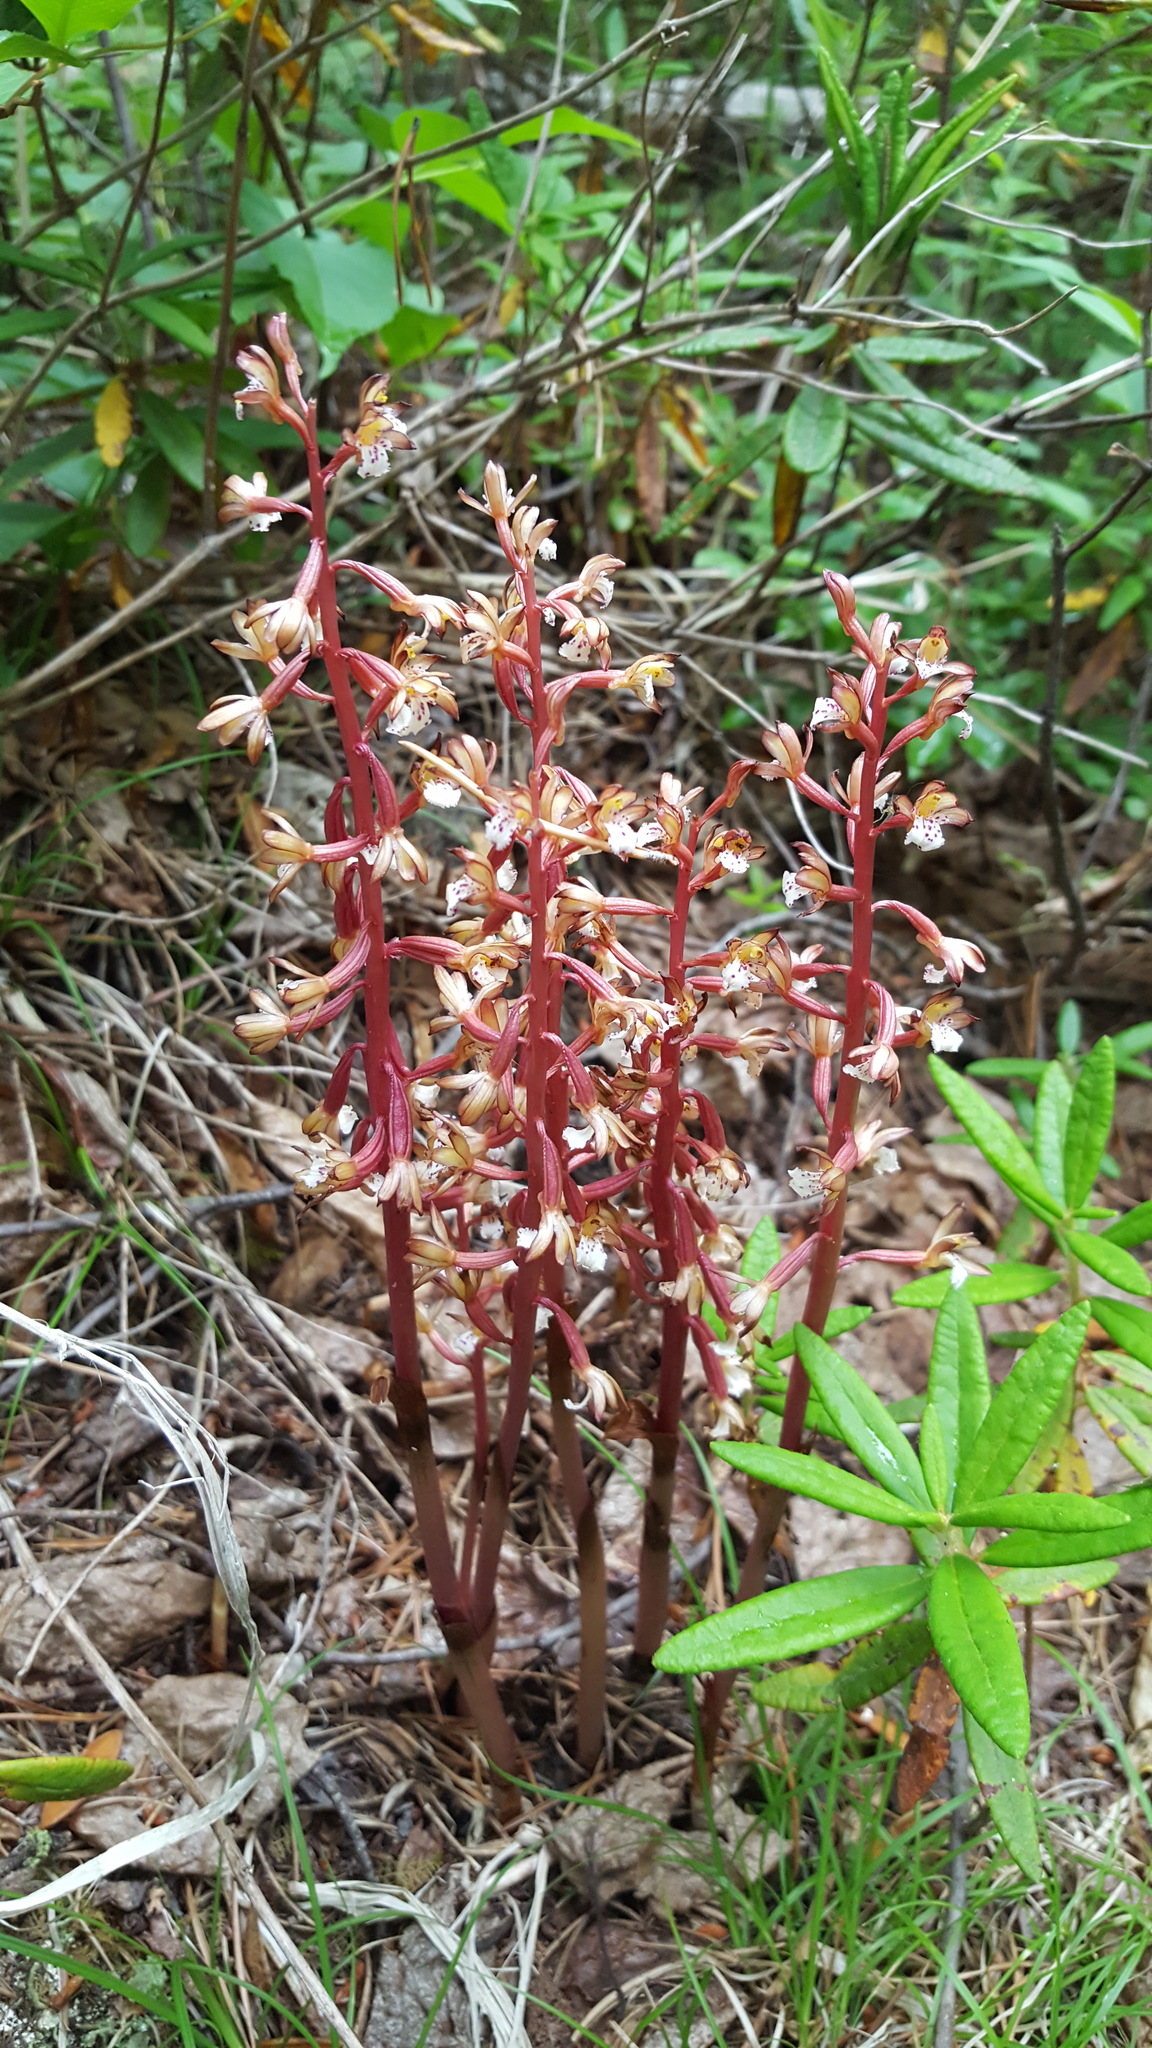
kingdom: Plantae
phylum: Tracheophyta
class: Liliopsida
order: Asparagales
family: Orchidaceae
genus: Corallorhiza
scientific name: Corallorhiza maculata
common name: Spotted coralroot
